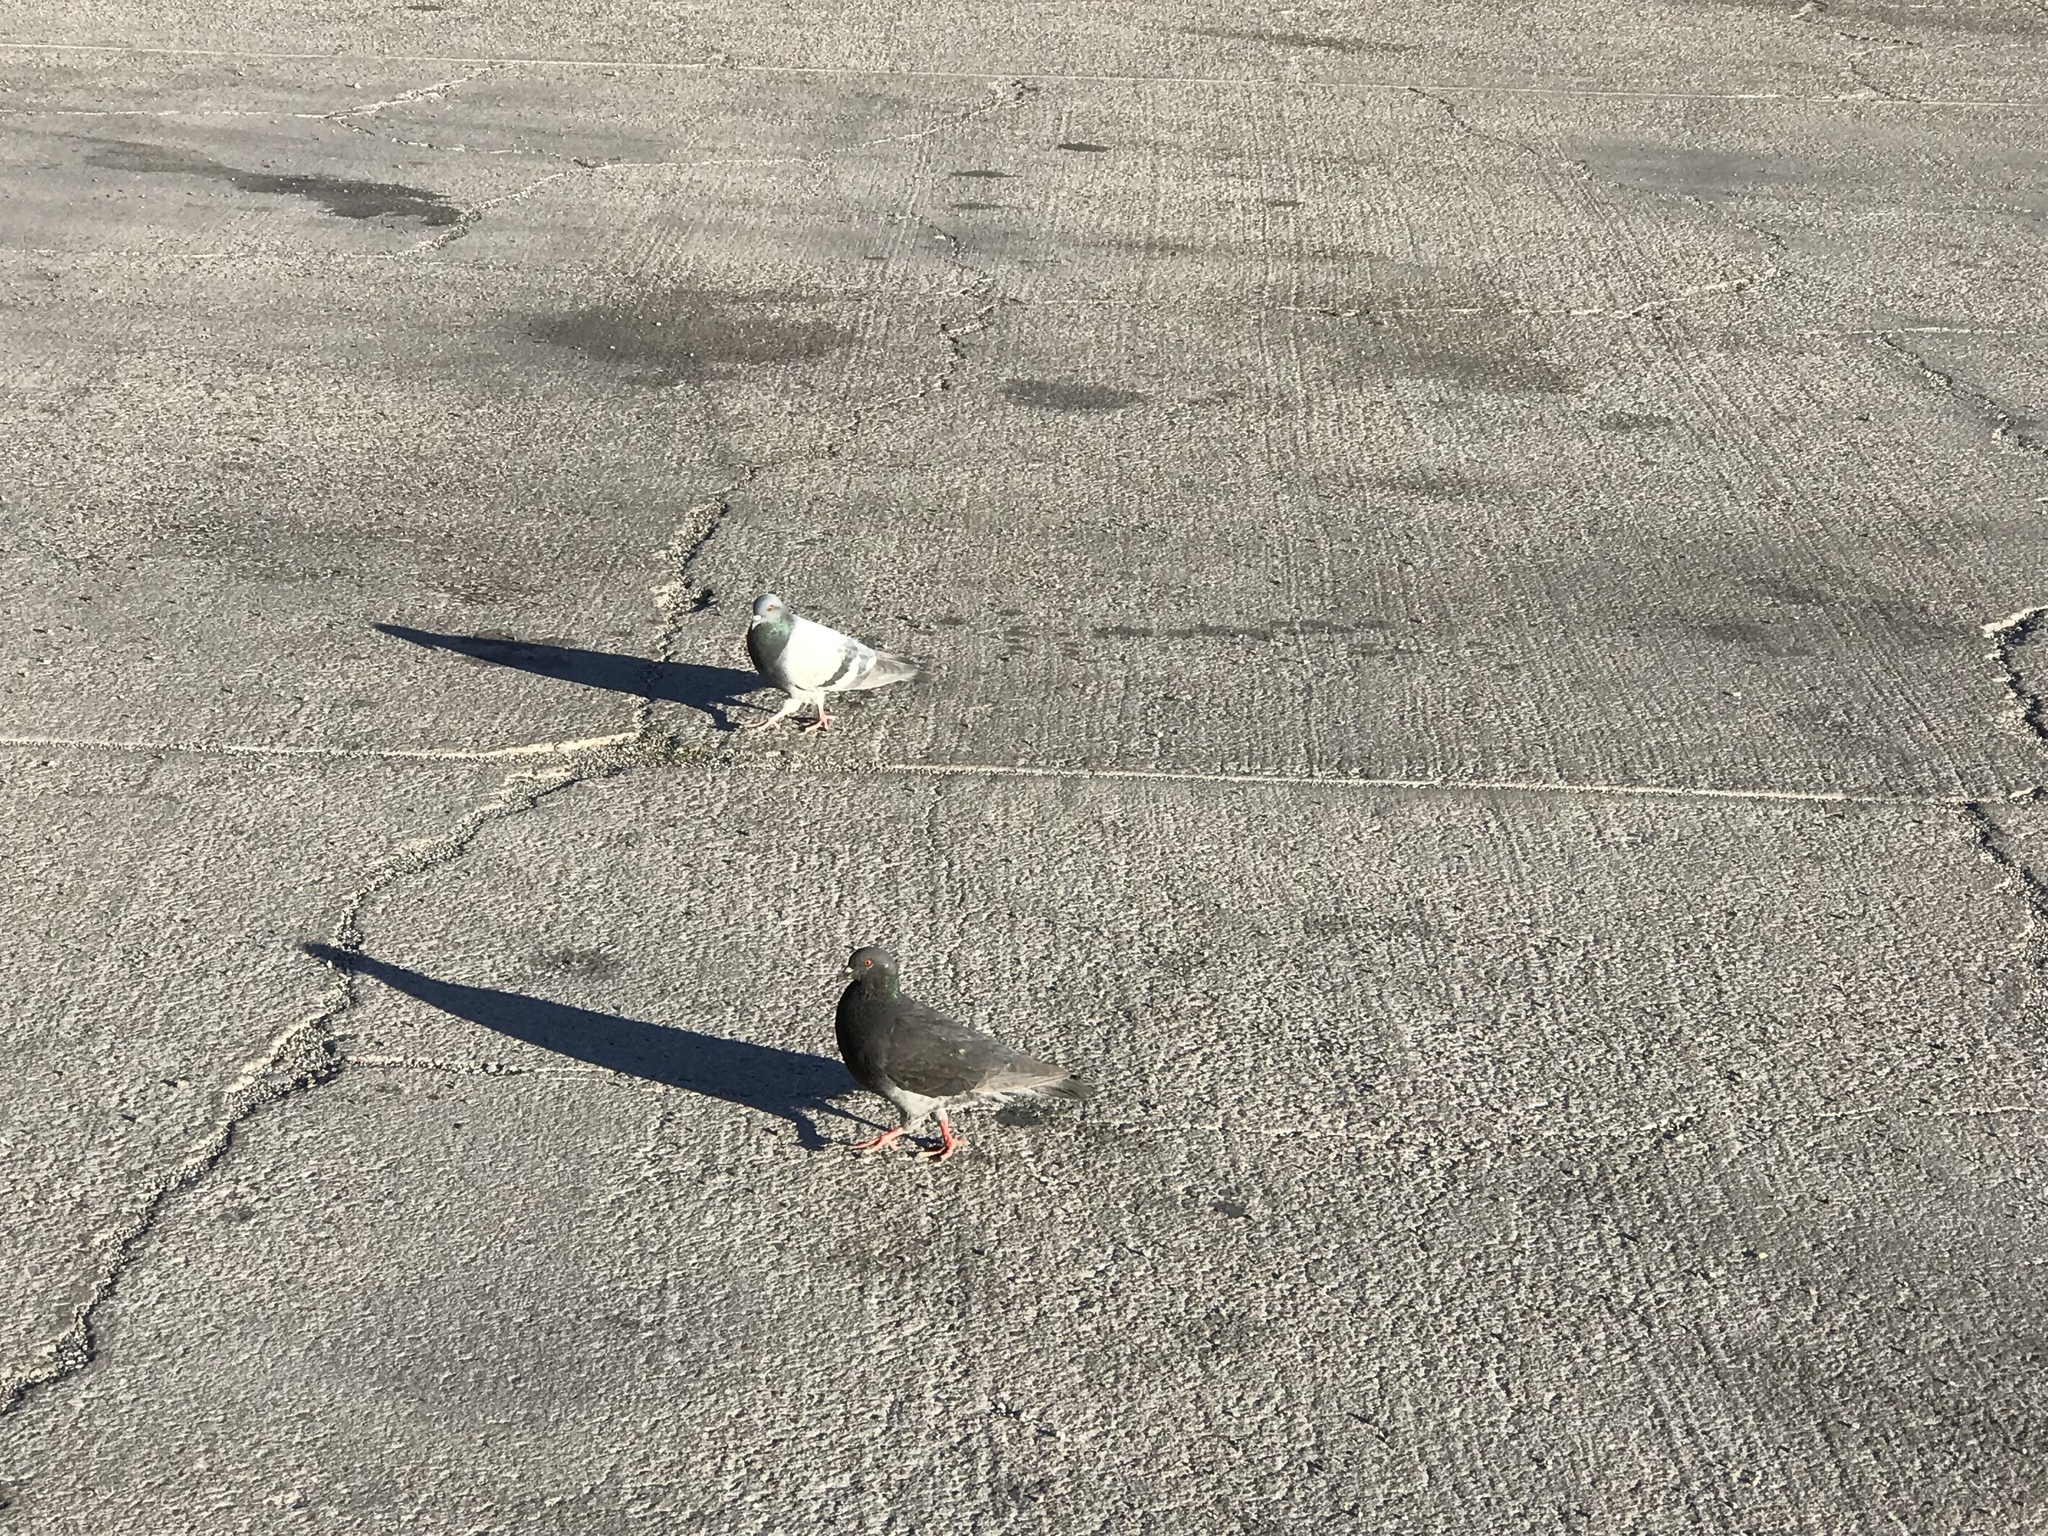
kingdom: Animalia
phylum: Chordata
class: Aves
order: Columbiformes
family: Columbidae
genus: Columba
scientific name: Columba livia
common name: Rock pigeon
